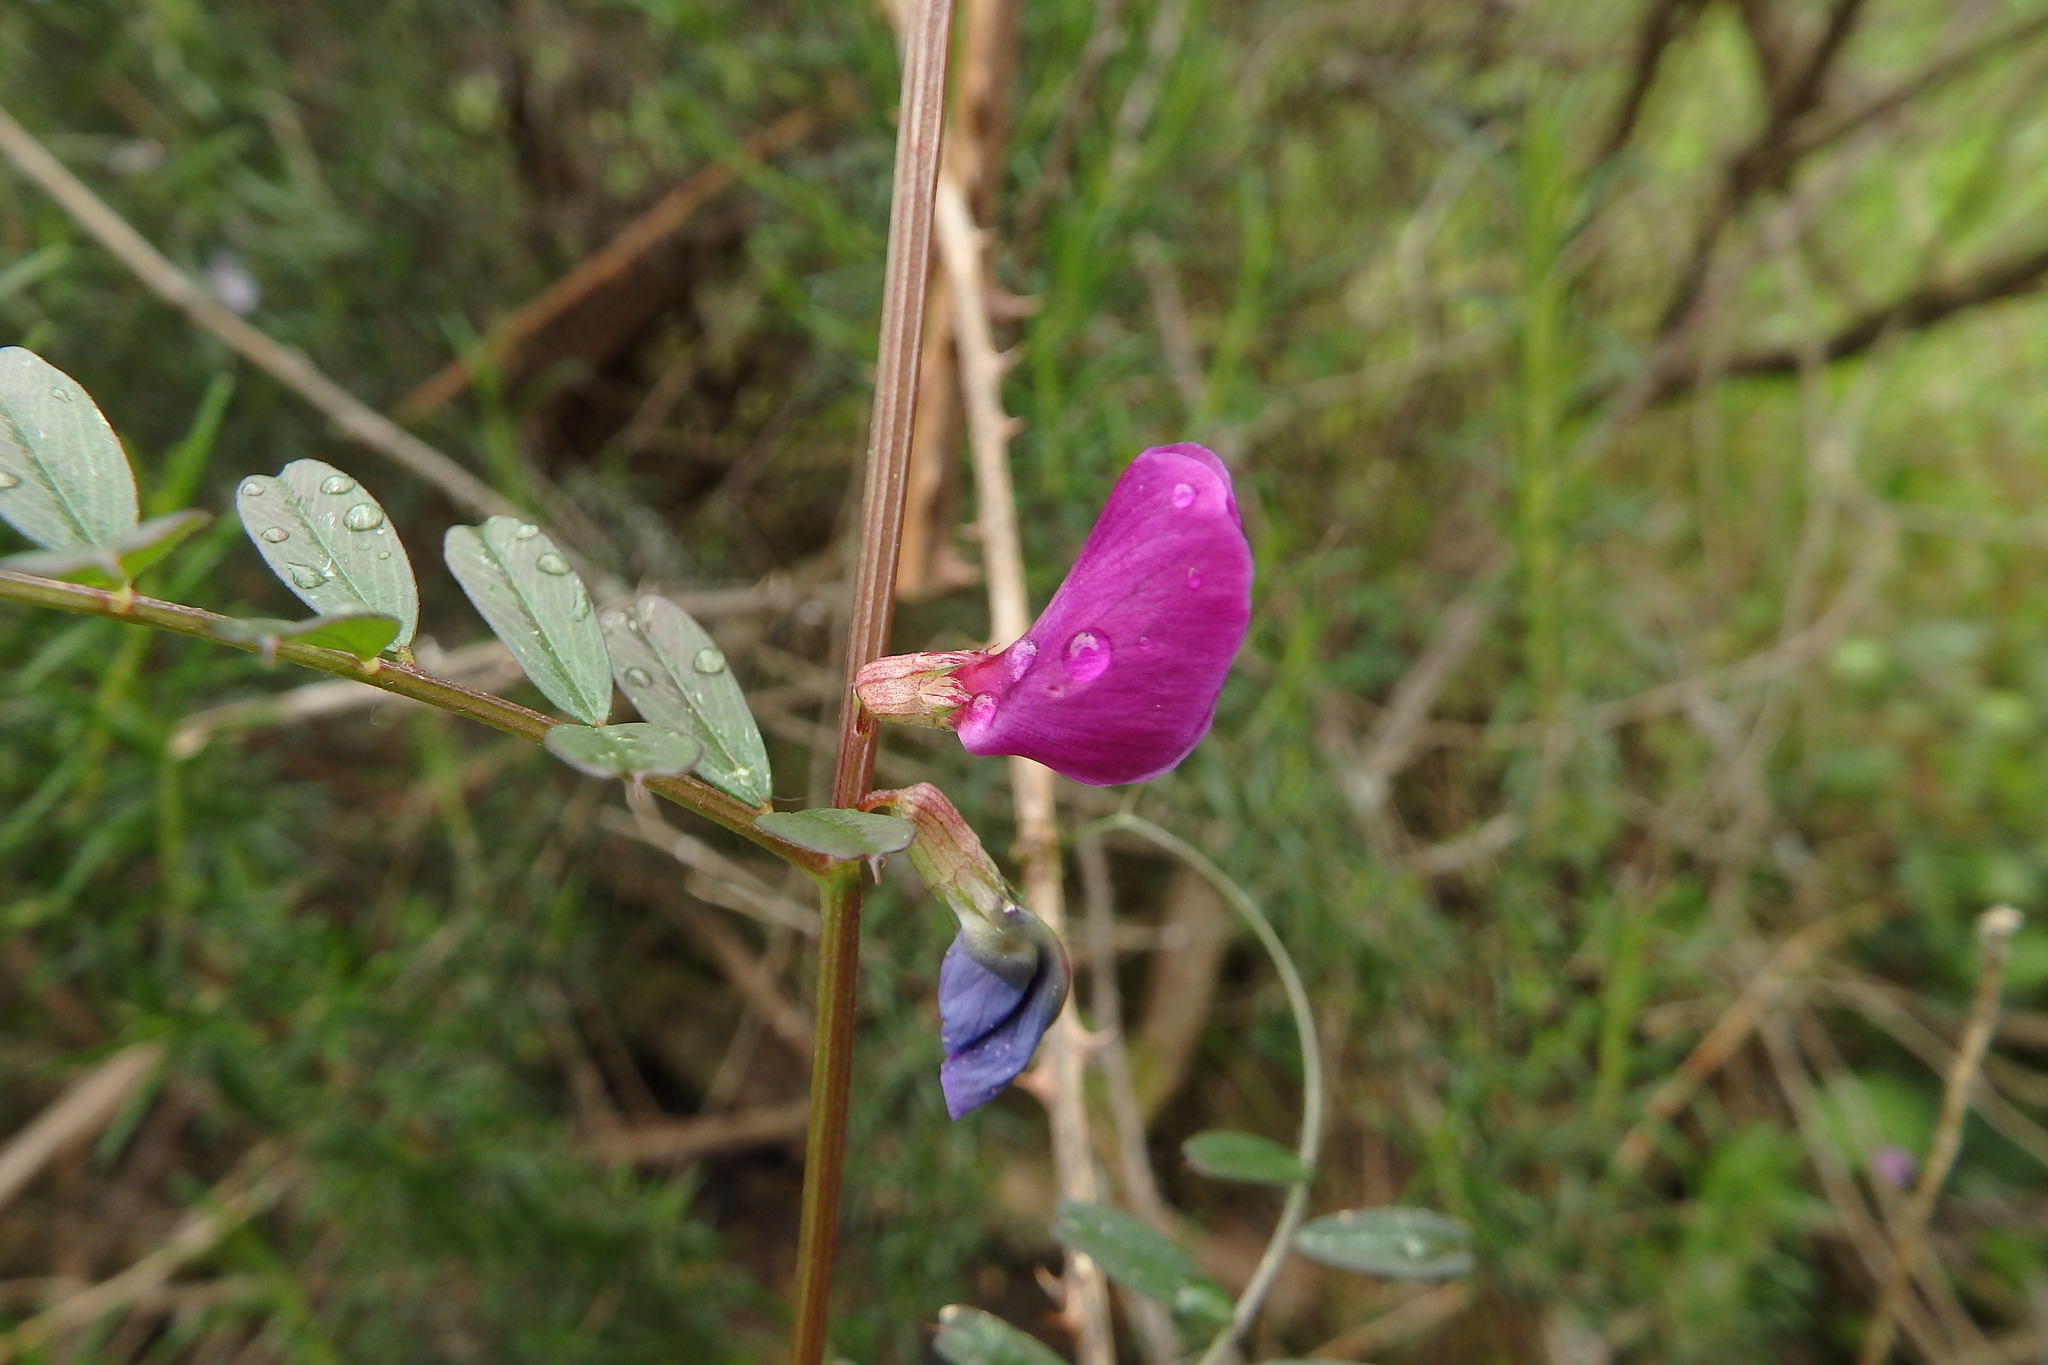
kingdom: Plantae
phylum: Tracheophyta
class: Magnoliopsida
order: Fabales
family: Fabaceae
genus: Vicia
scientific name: Vicia sativa
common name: Garden vetch
